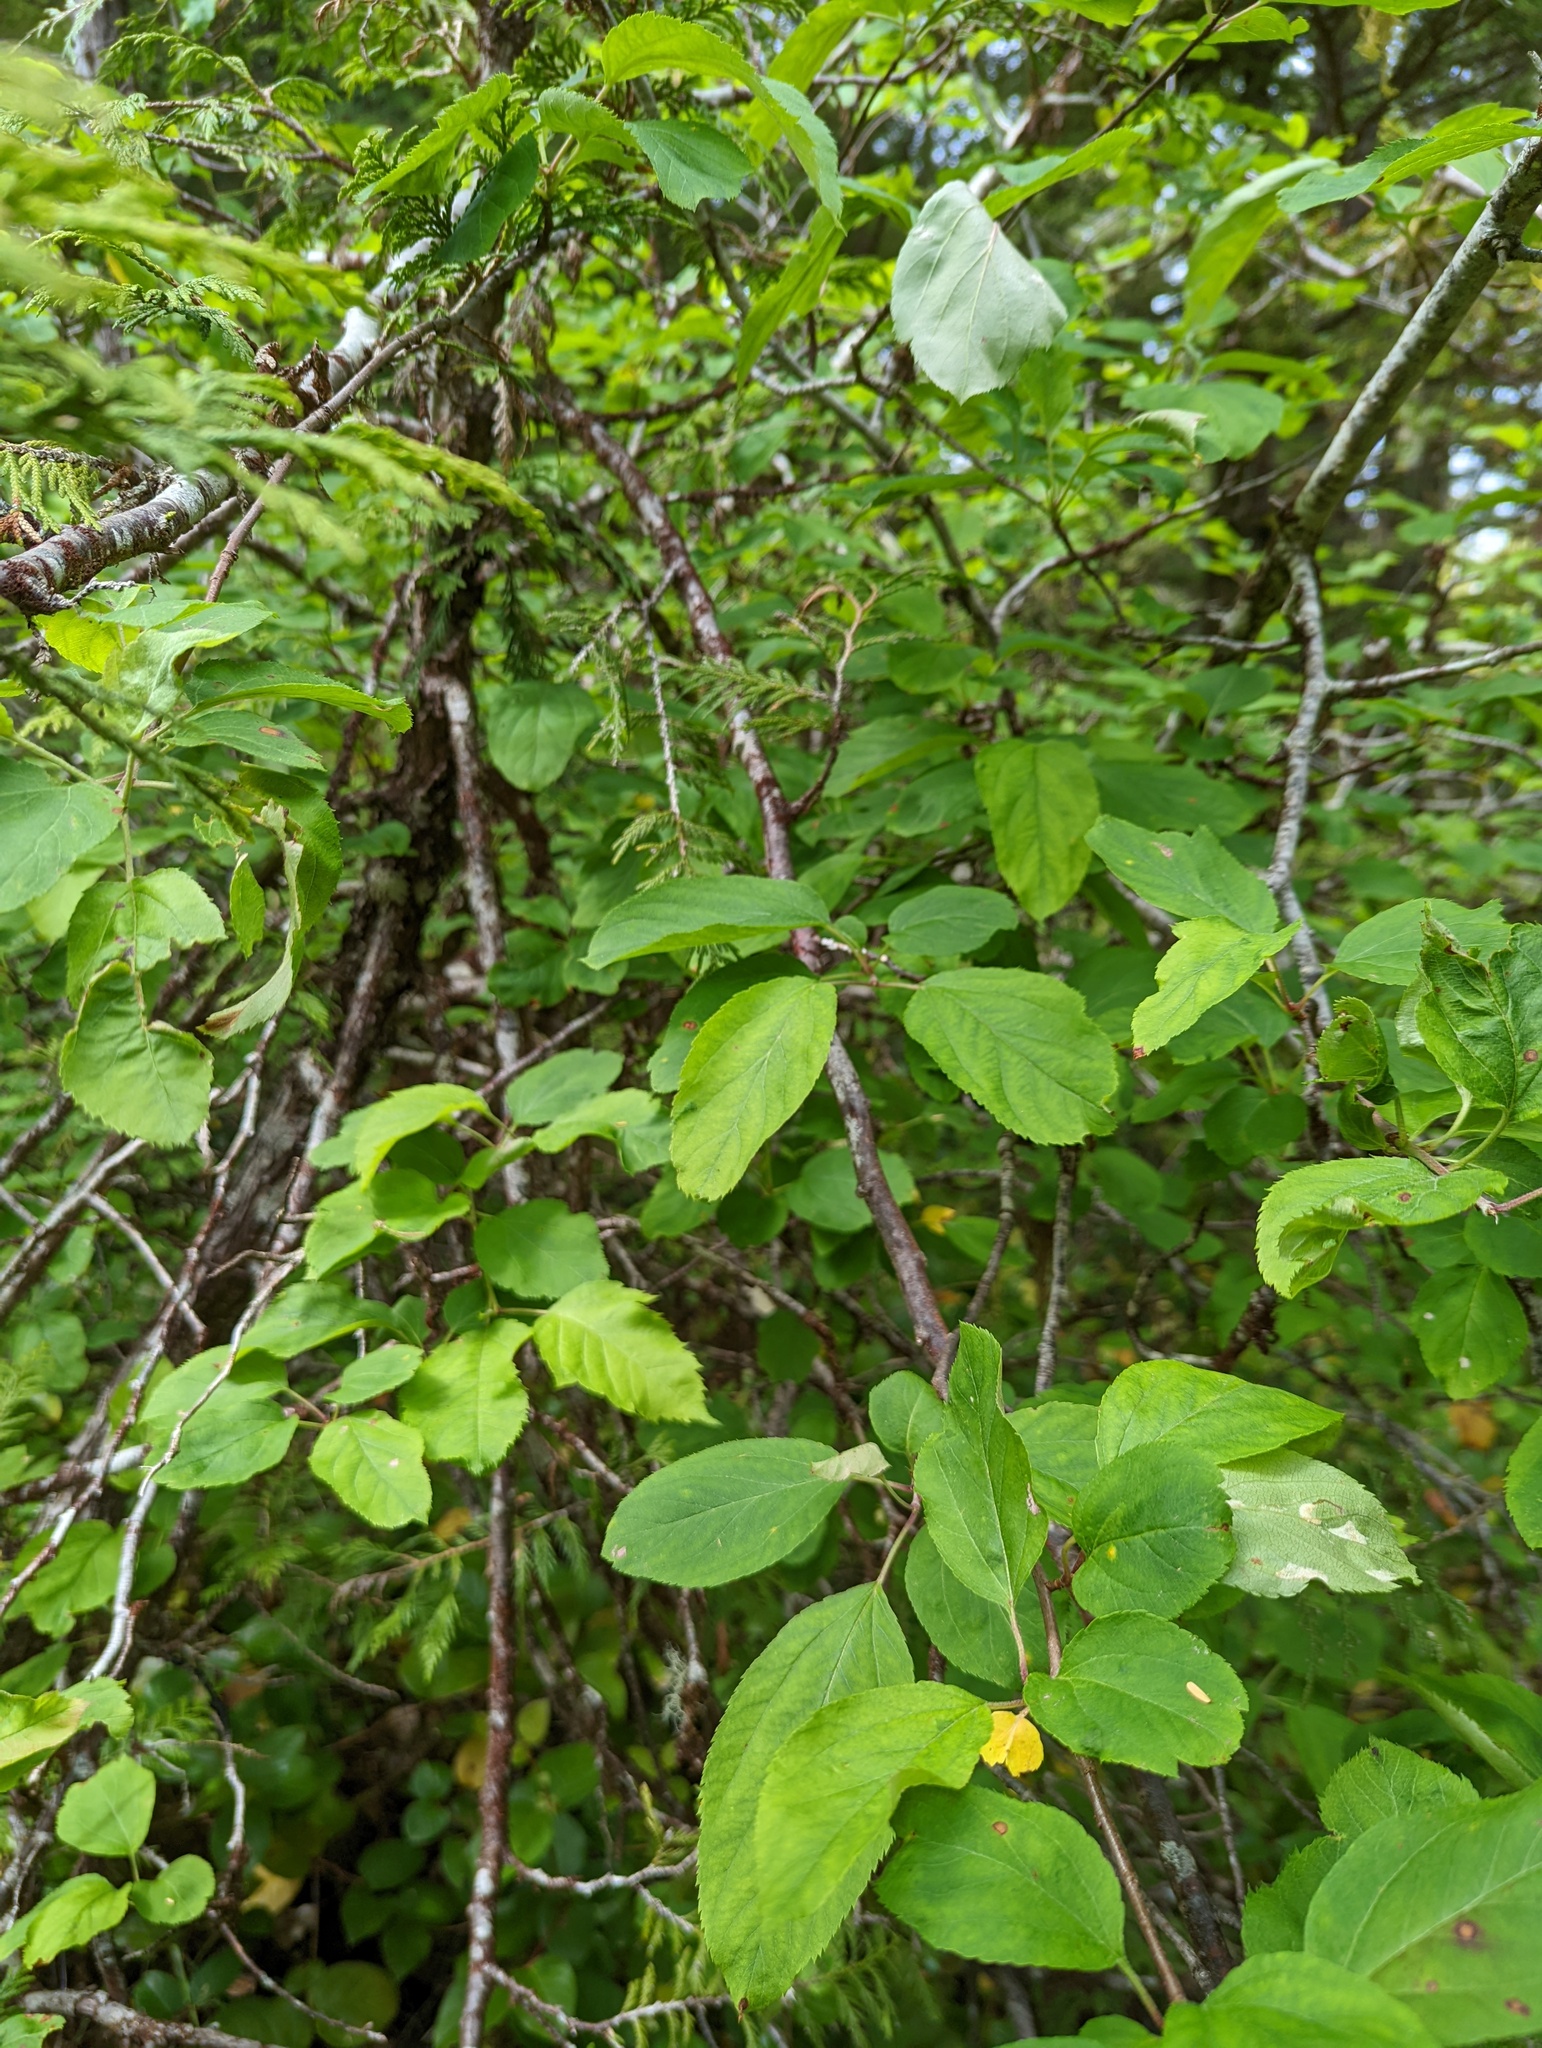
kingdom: Plantae
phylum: Tracheophyta
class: Magnoliopsida
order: Rosales
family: Rosaceae
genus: Malus
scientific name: Malus fusca
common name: Oregon crab apple
